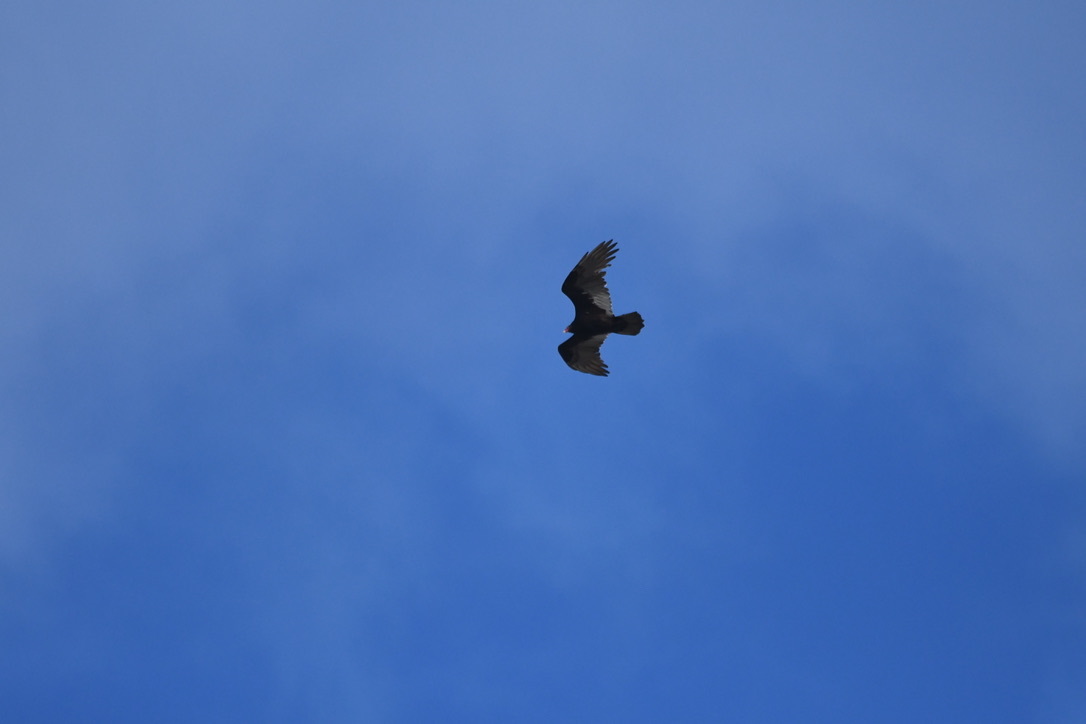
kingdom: Animalia
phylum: Chordata
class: Aves
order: Accipitriformes
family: Cathartidae
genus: Cathartes
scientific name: Cathartes aura
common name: Turkey vulture
